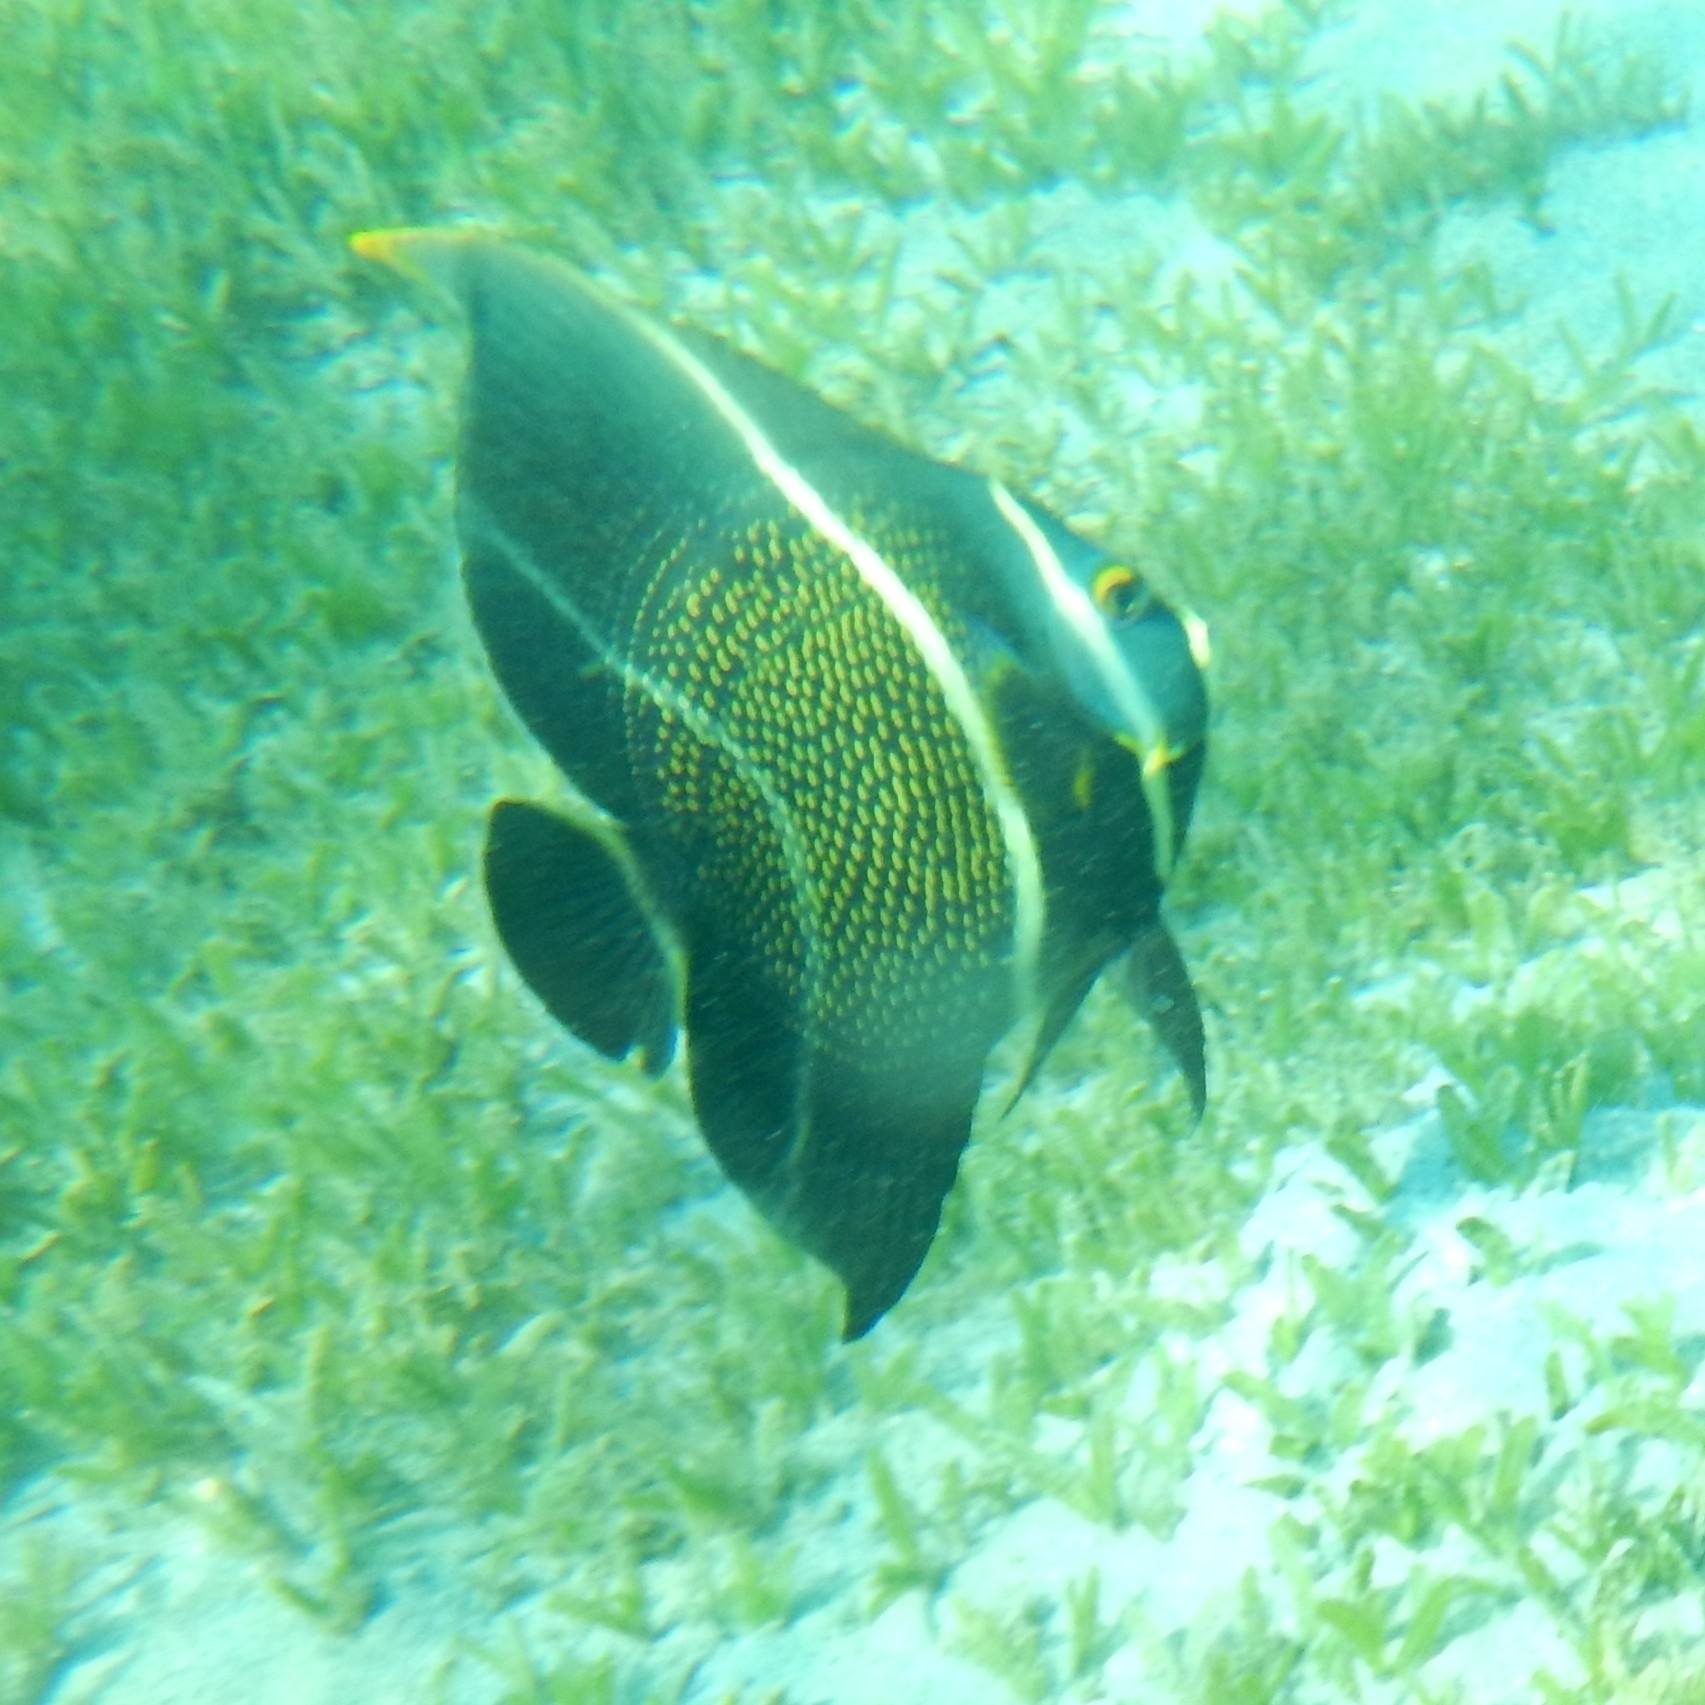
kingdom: Animalia
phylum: Chordata
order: Perciformes
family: Pomacanthidae
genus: Pomacanthus
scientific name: Pomacanthus paru
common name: French angelfish
